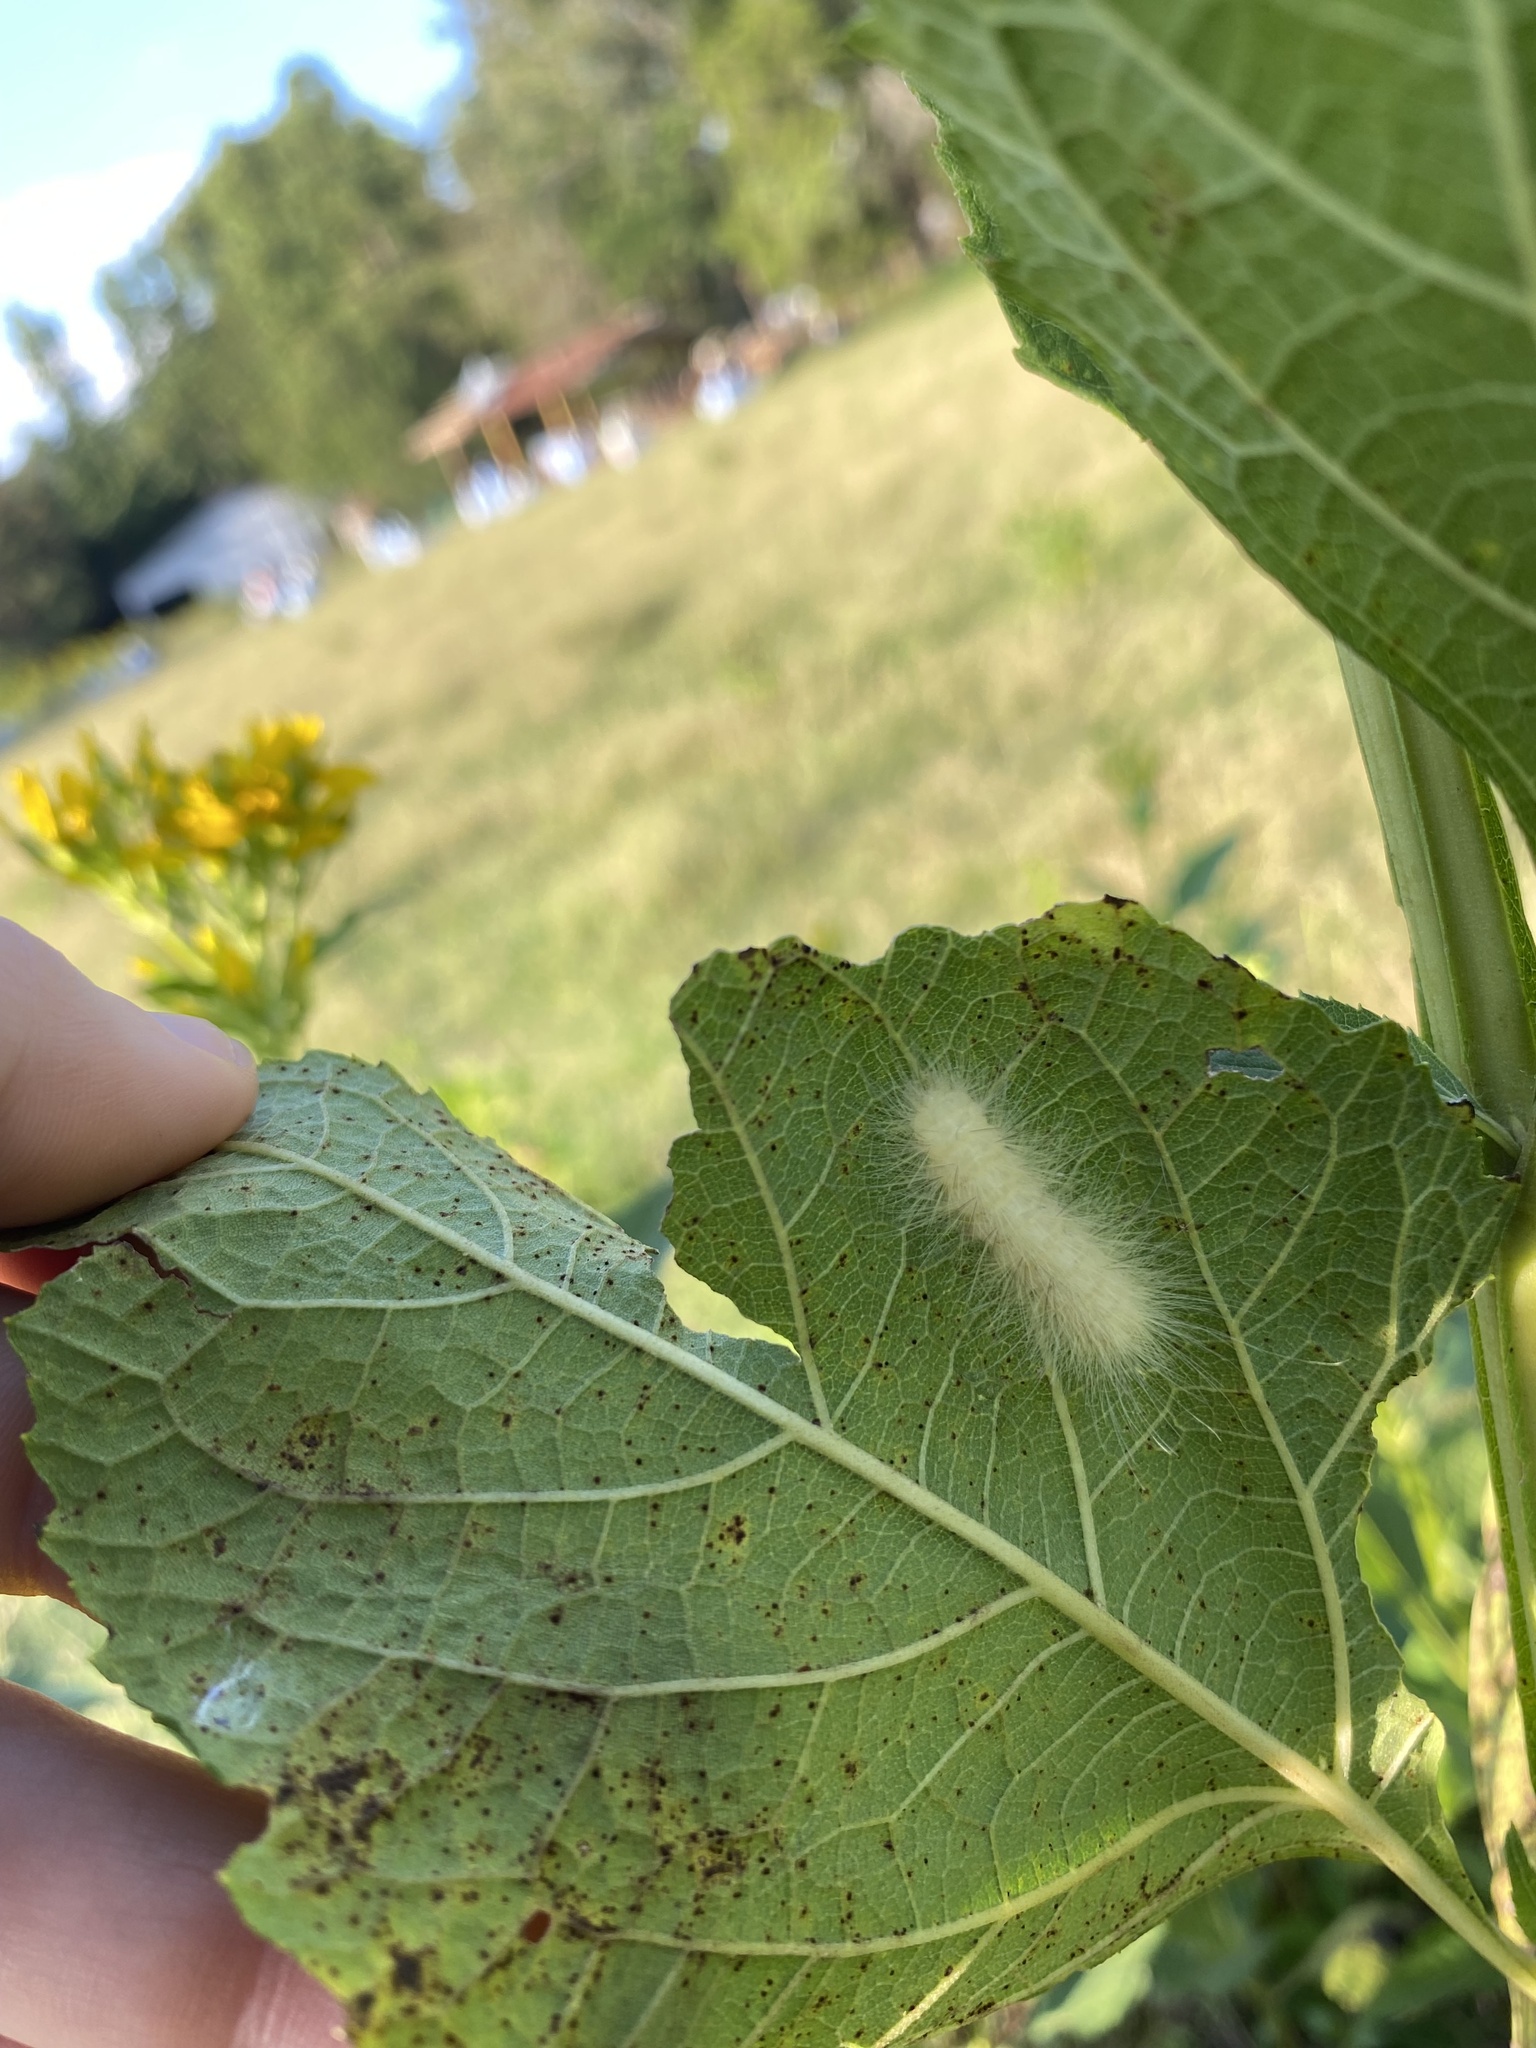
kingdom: Animalia
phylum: Arthropoda
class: Insecta
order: Lepidoptera
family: Erebidae
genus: Spilosoma
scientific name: Spilosoma virginica
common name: Virginia tiger moth
